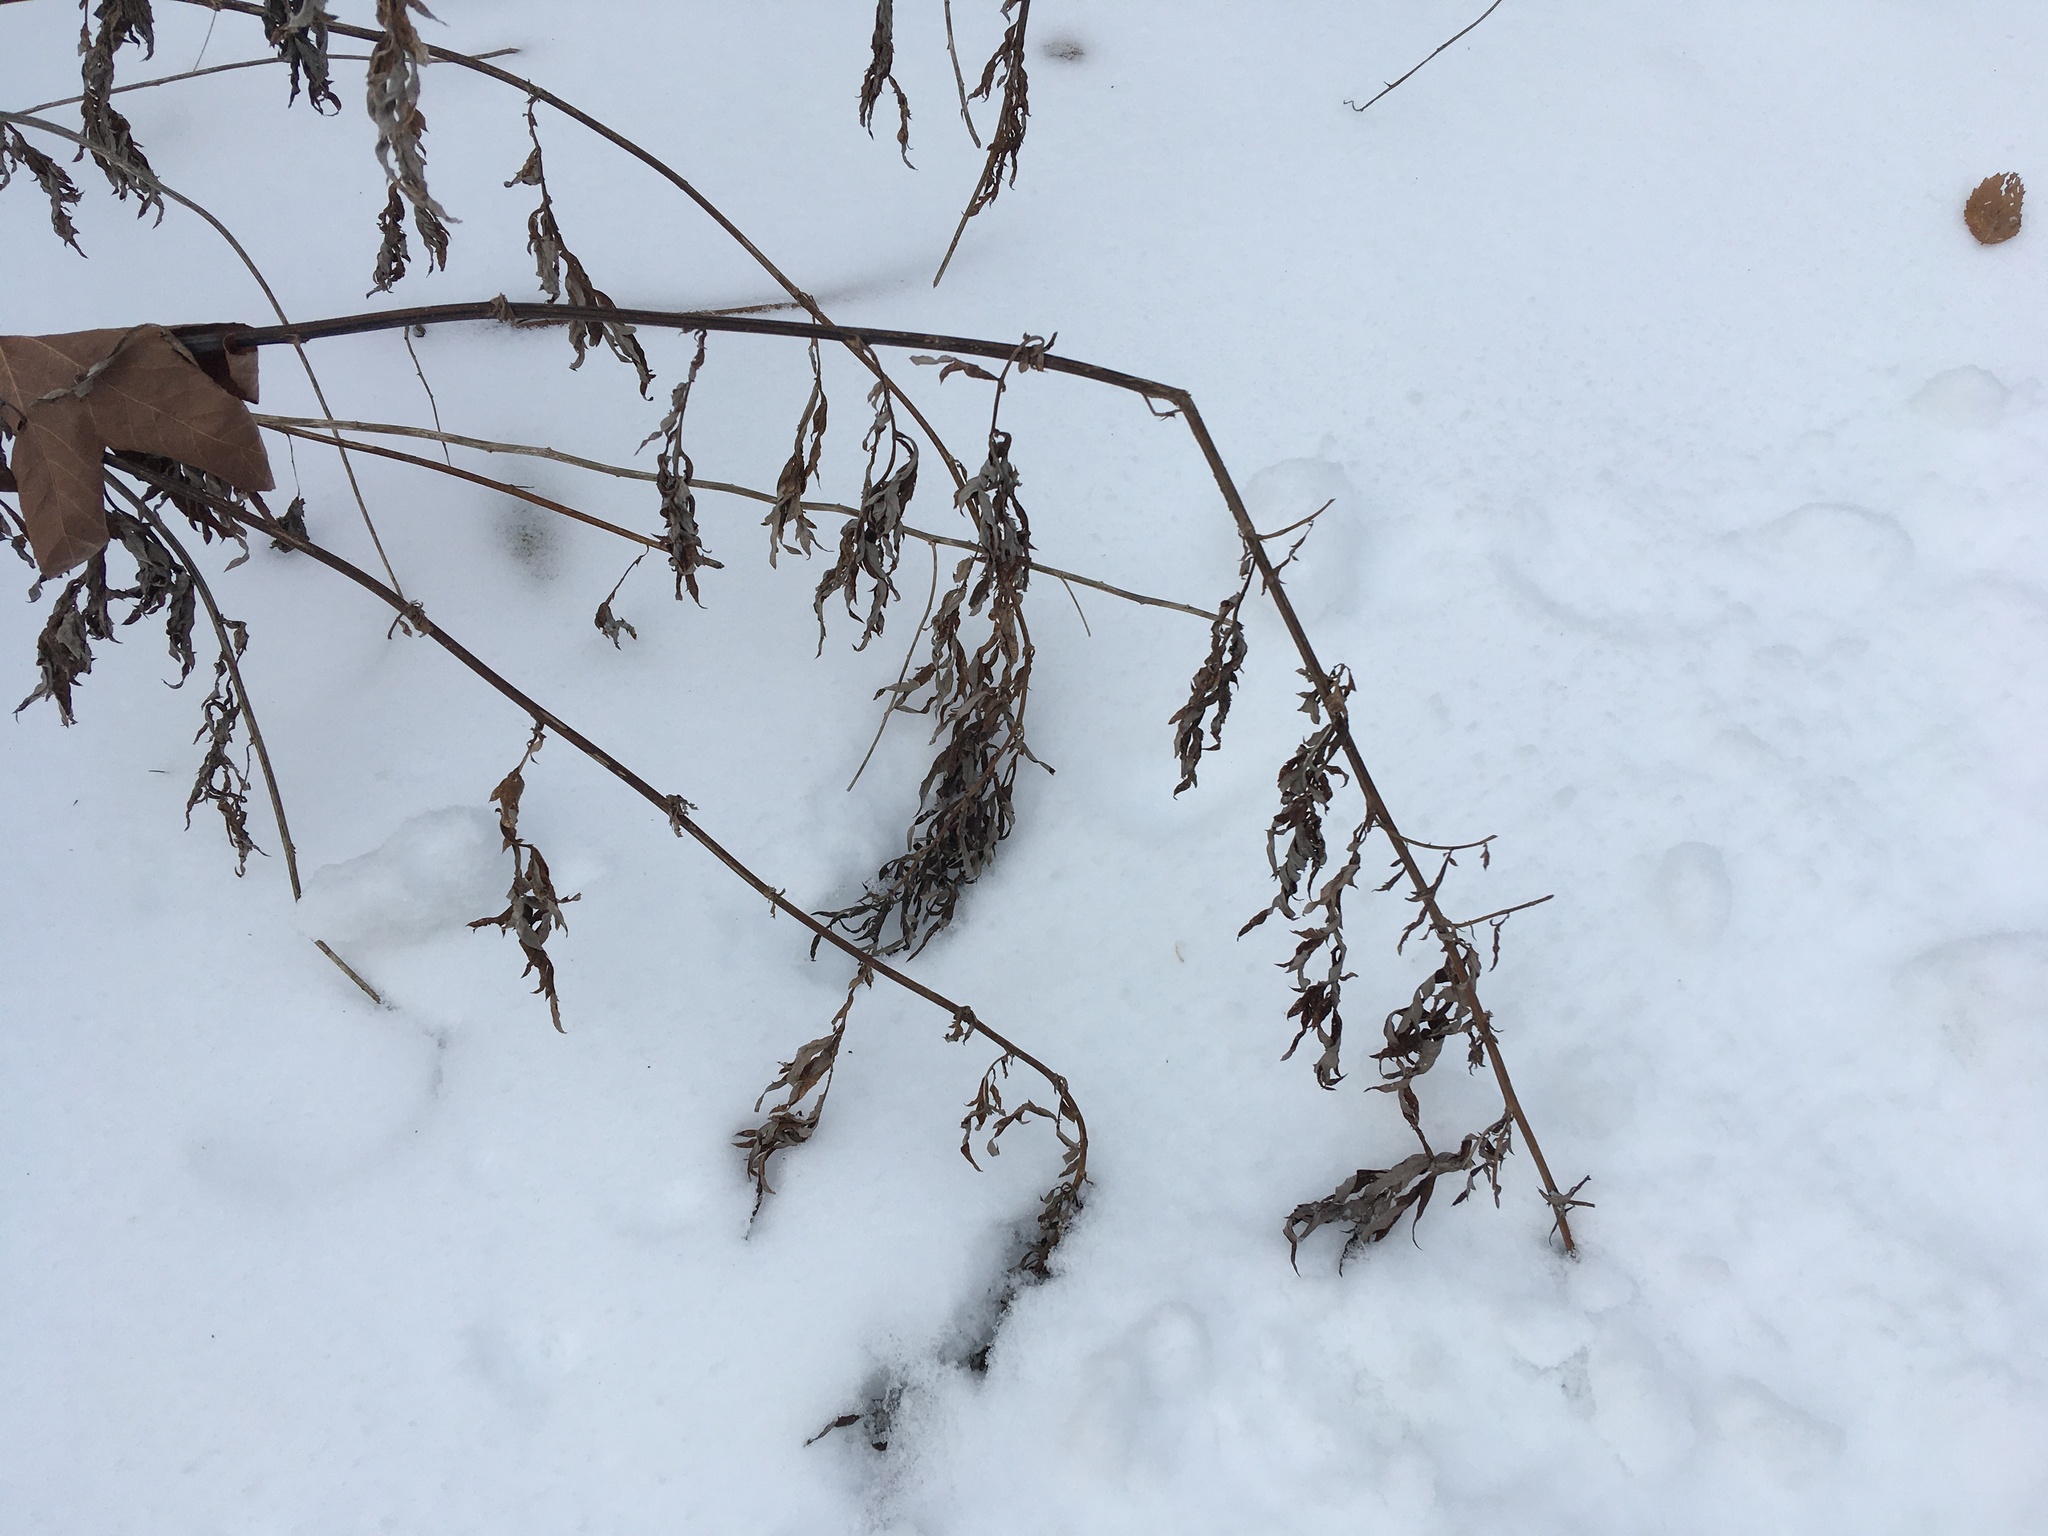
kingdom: Plantae
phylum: Tracheophyta
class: Magnoliopsida
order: Asterales
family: Asteraceae
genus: Artemisia
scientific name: Artemisia vulgaris
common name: Mugwort
